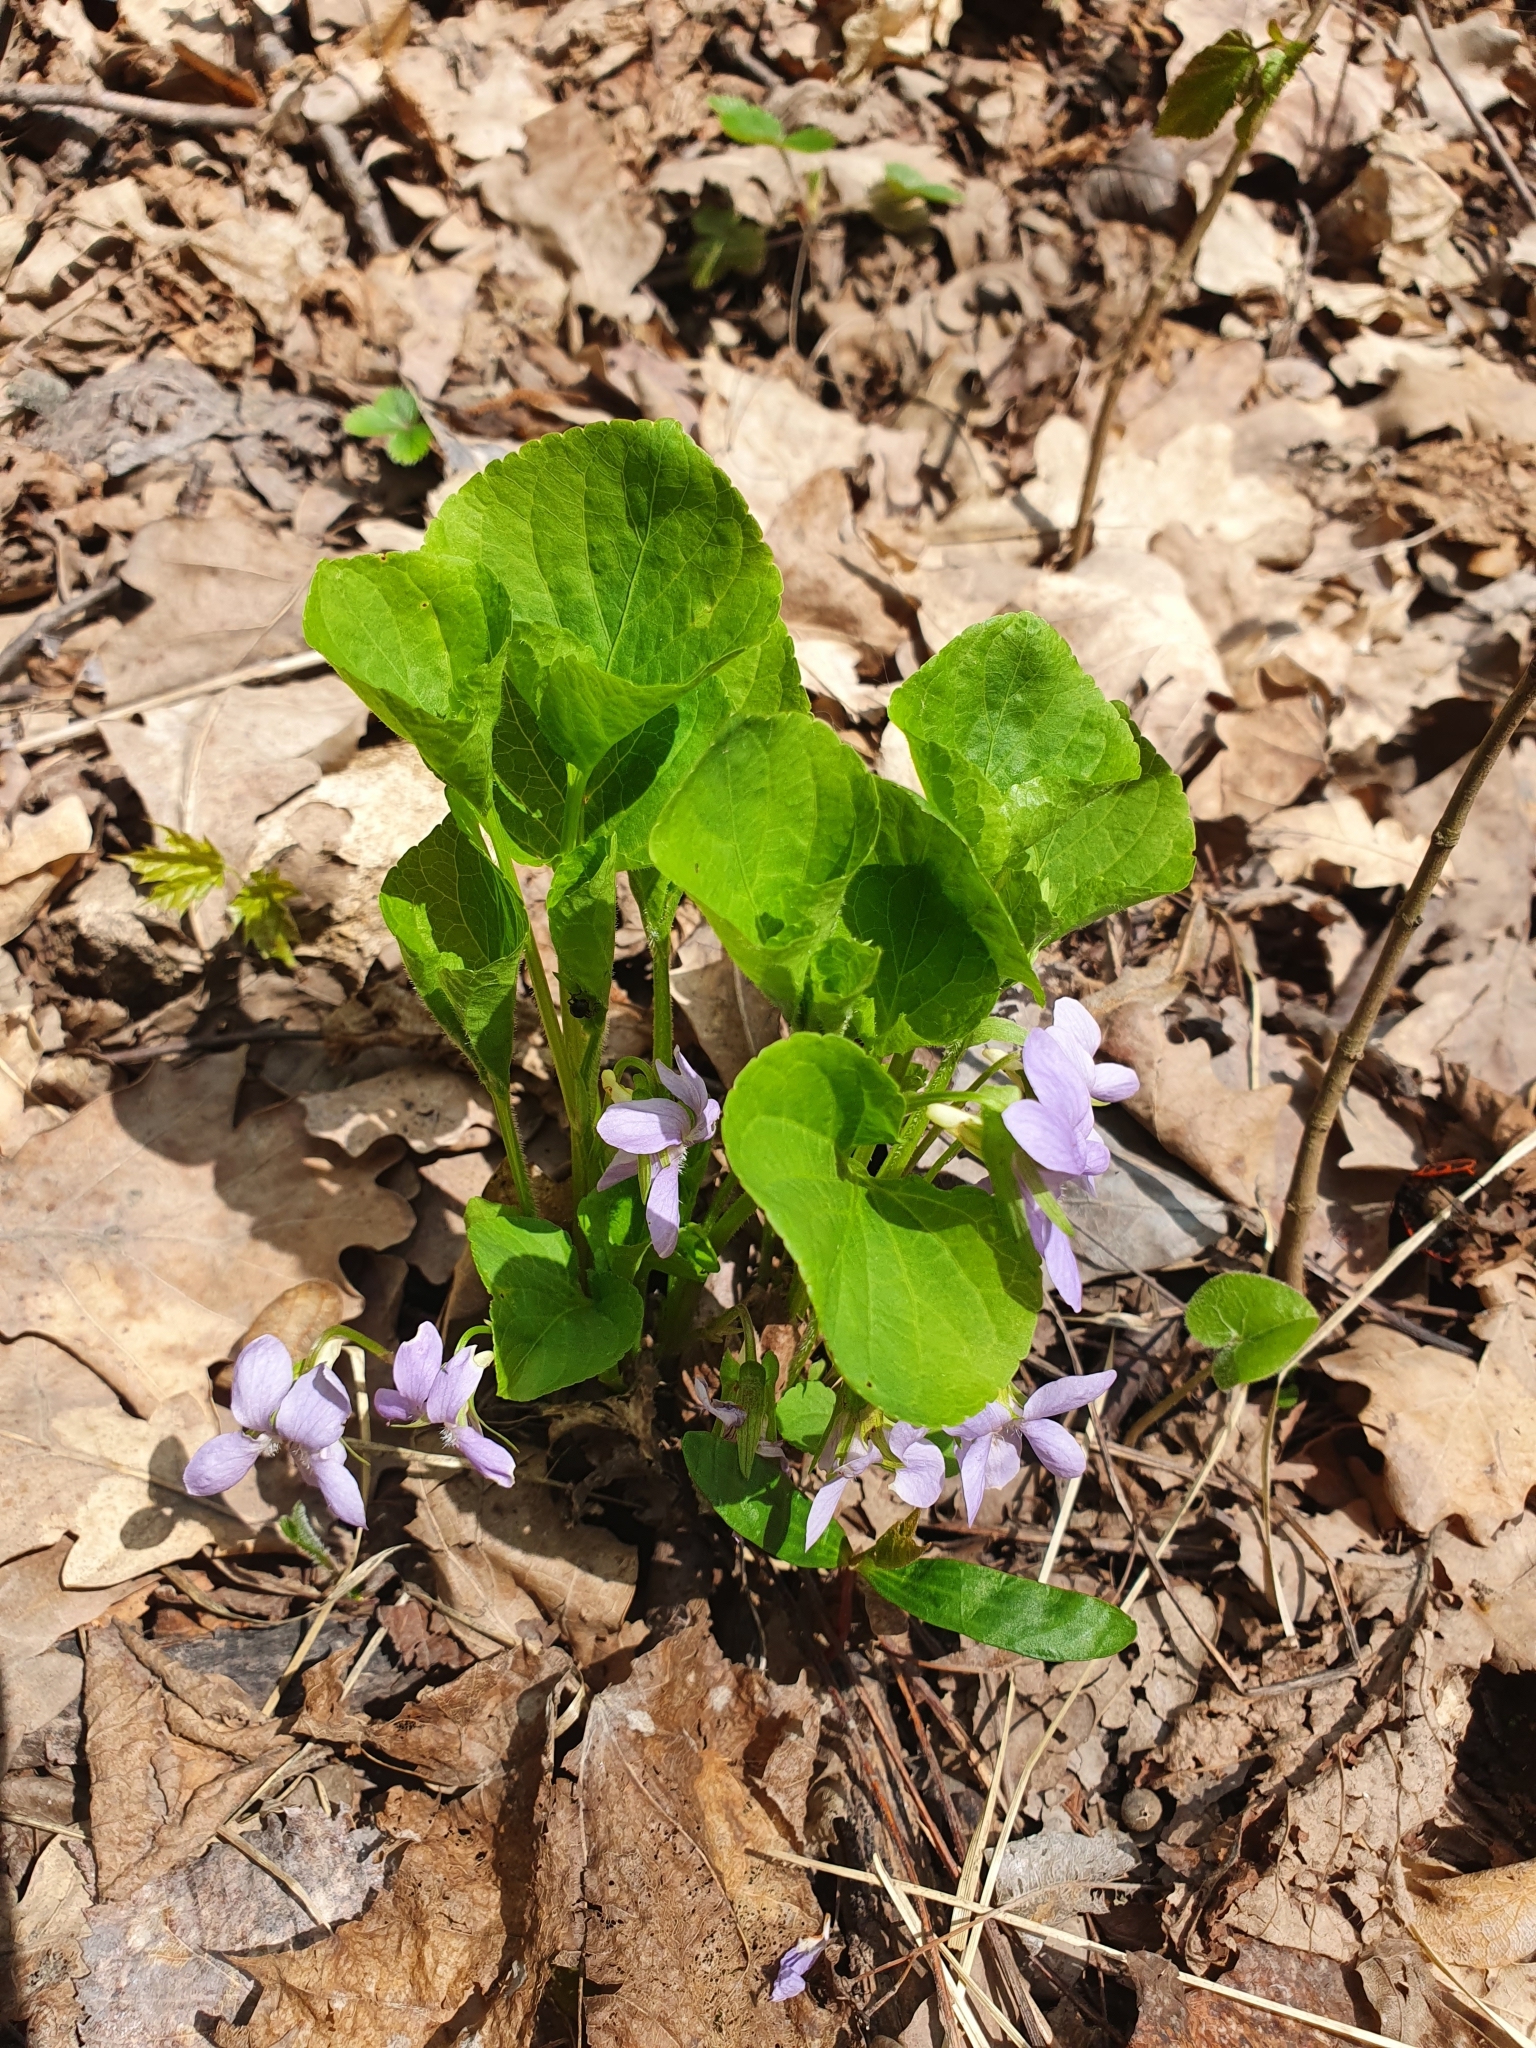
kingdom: Plantae
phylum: Tracheophyta
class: Magnoliopsida
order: Malpighiales
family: Violaceae
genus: Viola
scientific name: Viola mirabilis
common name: Wonder violet
